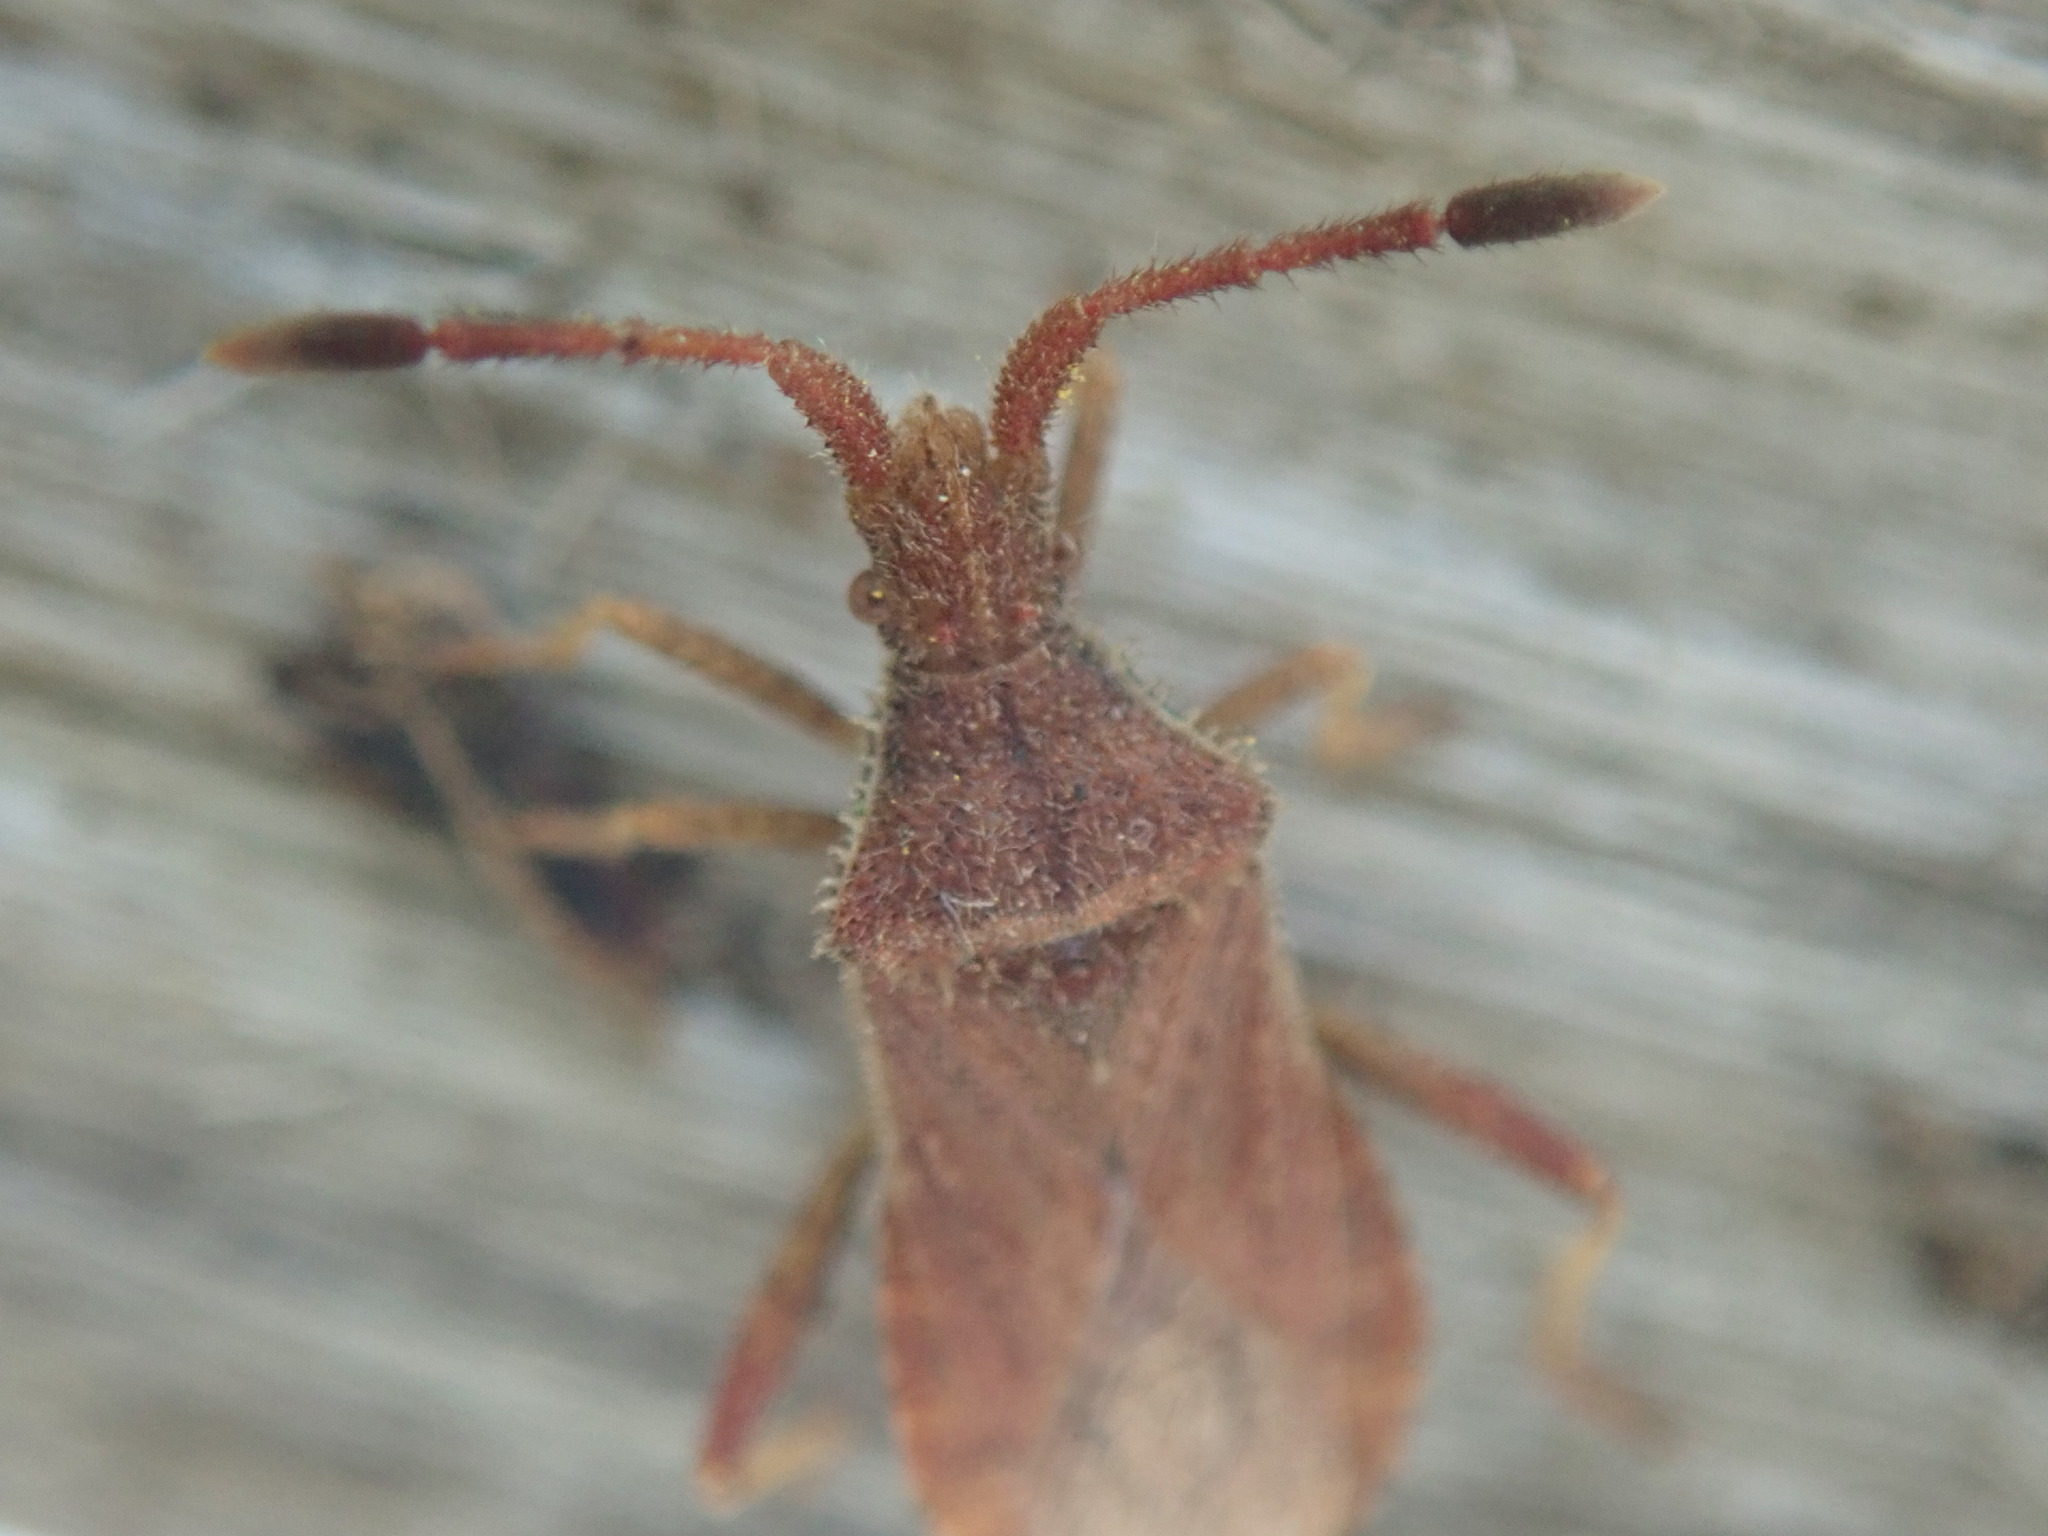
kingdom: Animalia
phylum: Arthropoda
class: Insecta
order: Hemiptera
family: Coreidae
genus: Coriomeris
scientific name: Coriomeris denticulatus
